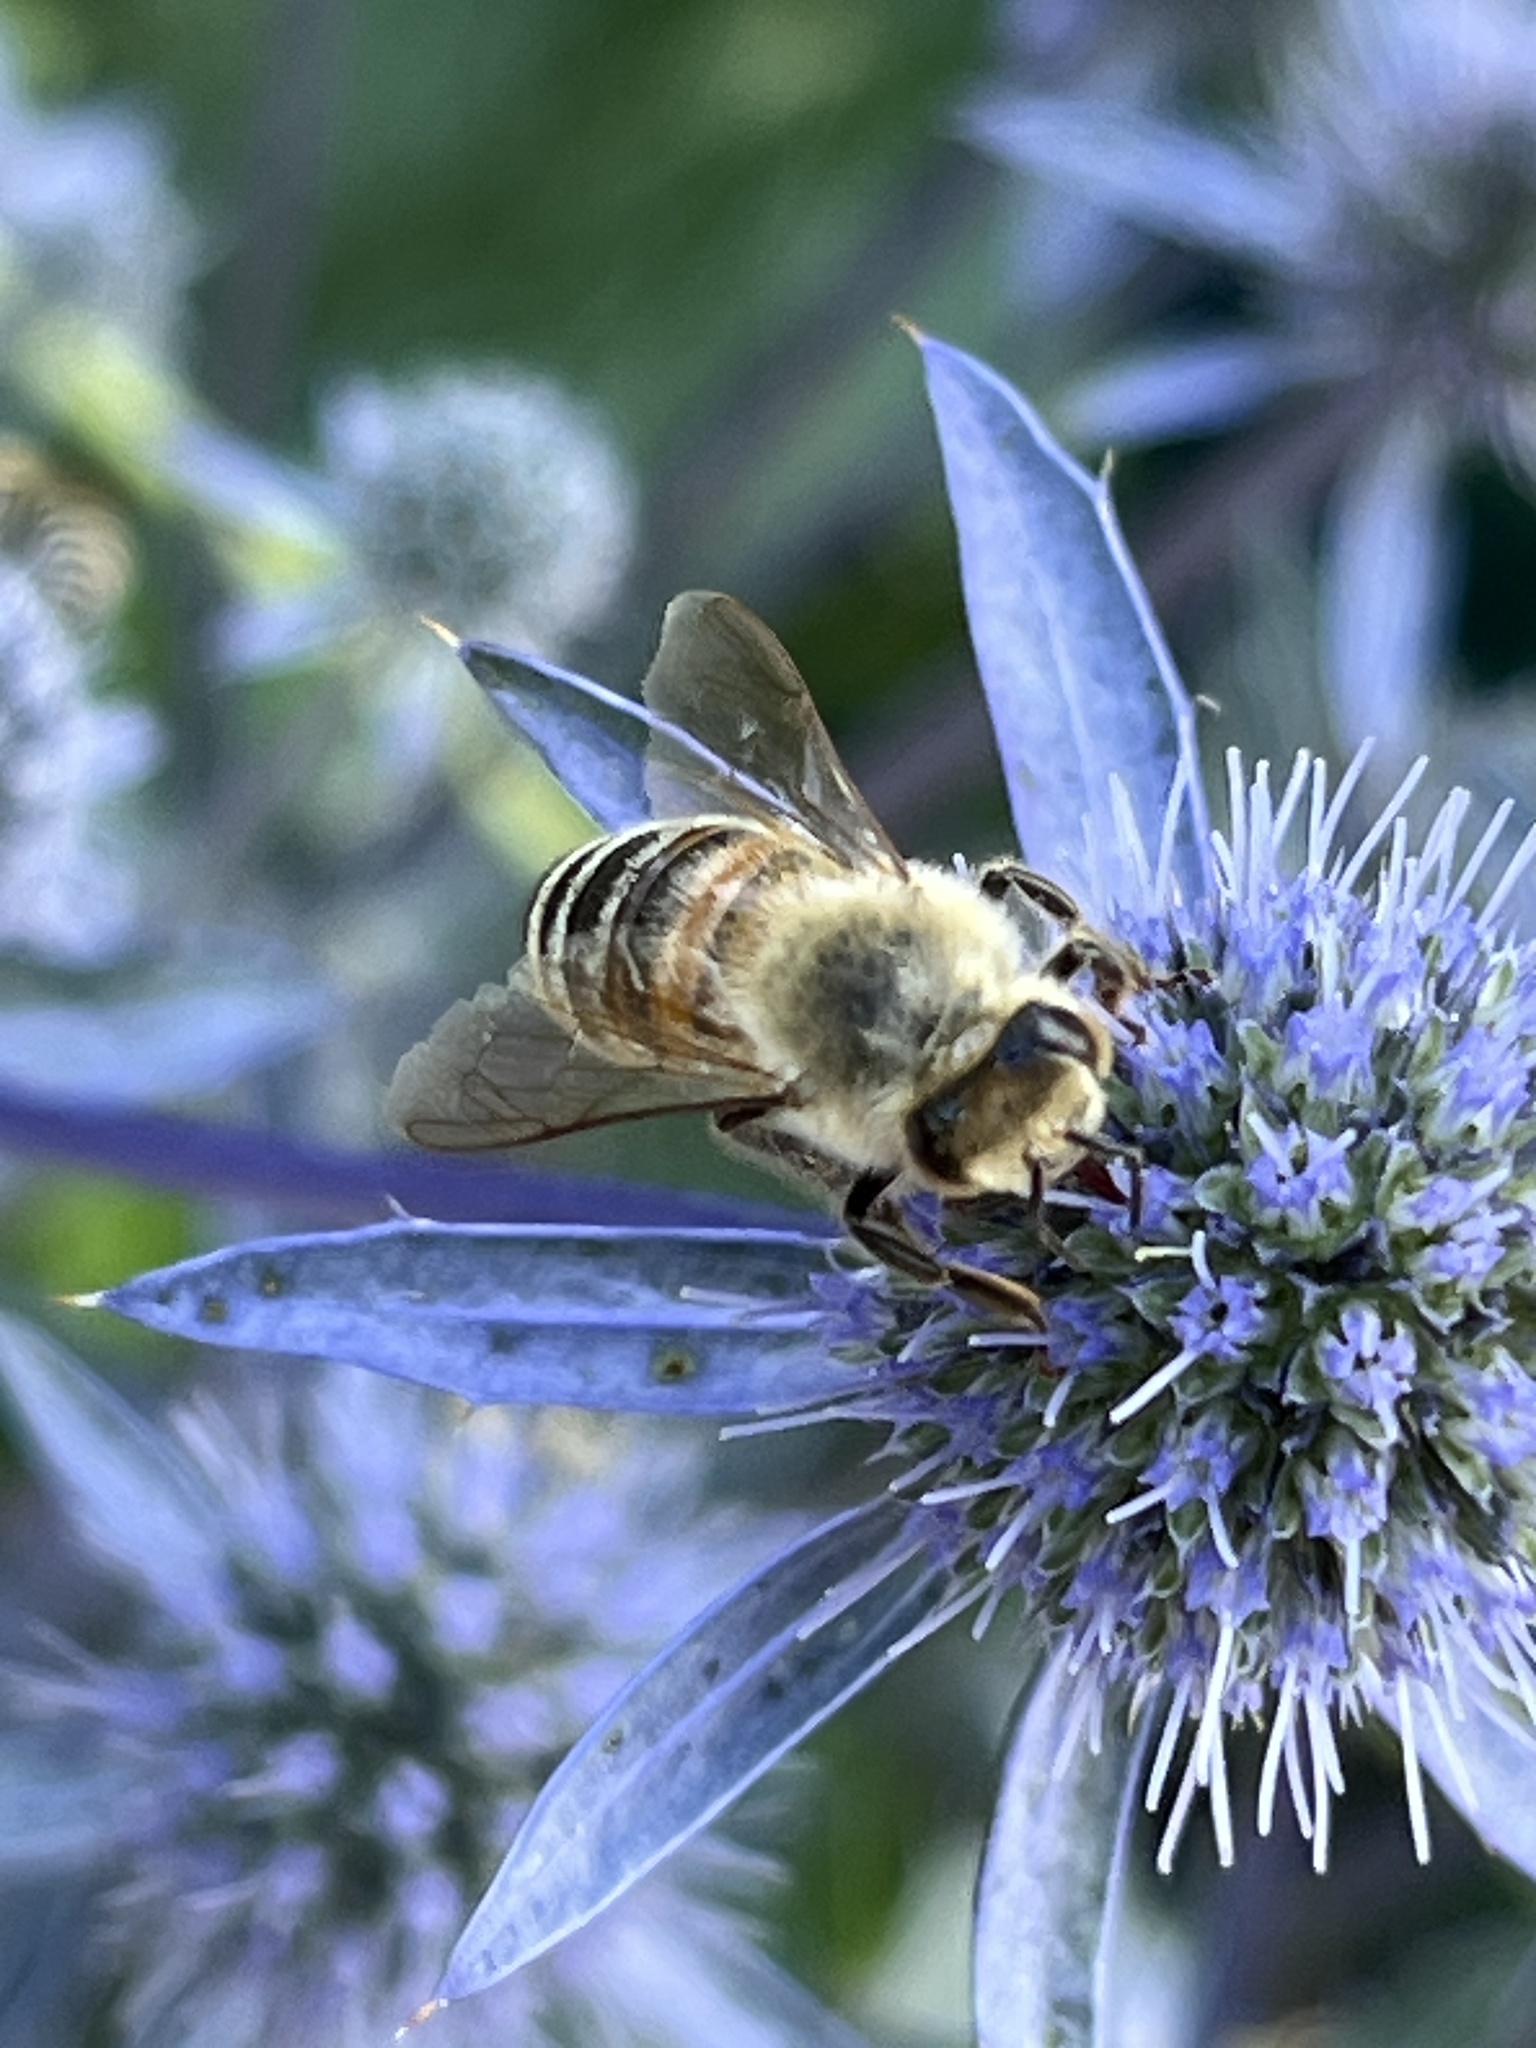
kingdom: Animalia
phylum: Arthropoda
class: Insecta
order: Hymenoptera
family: Apidae
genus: Apis
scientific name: Apis mellifera
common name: Honey bee
